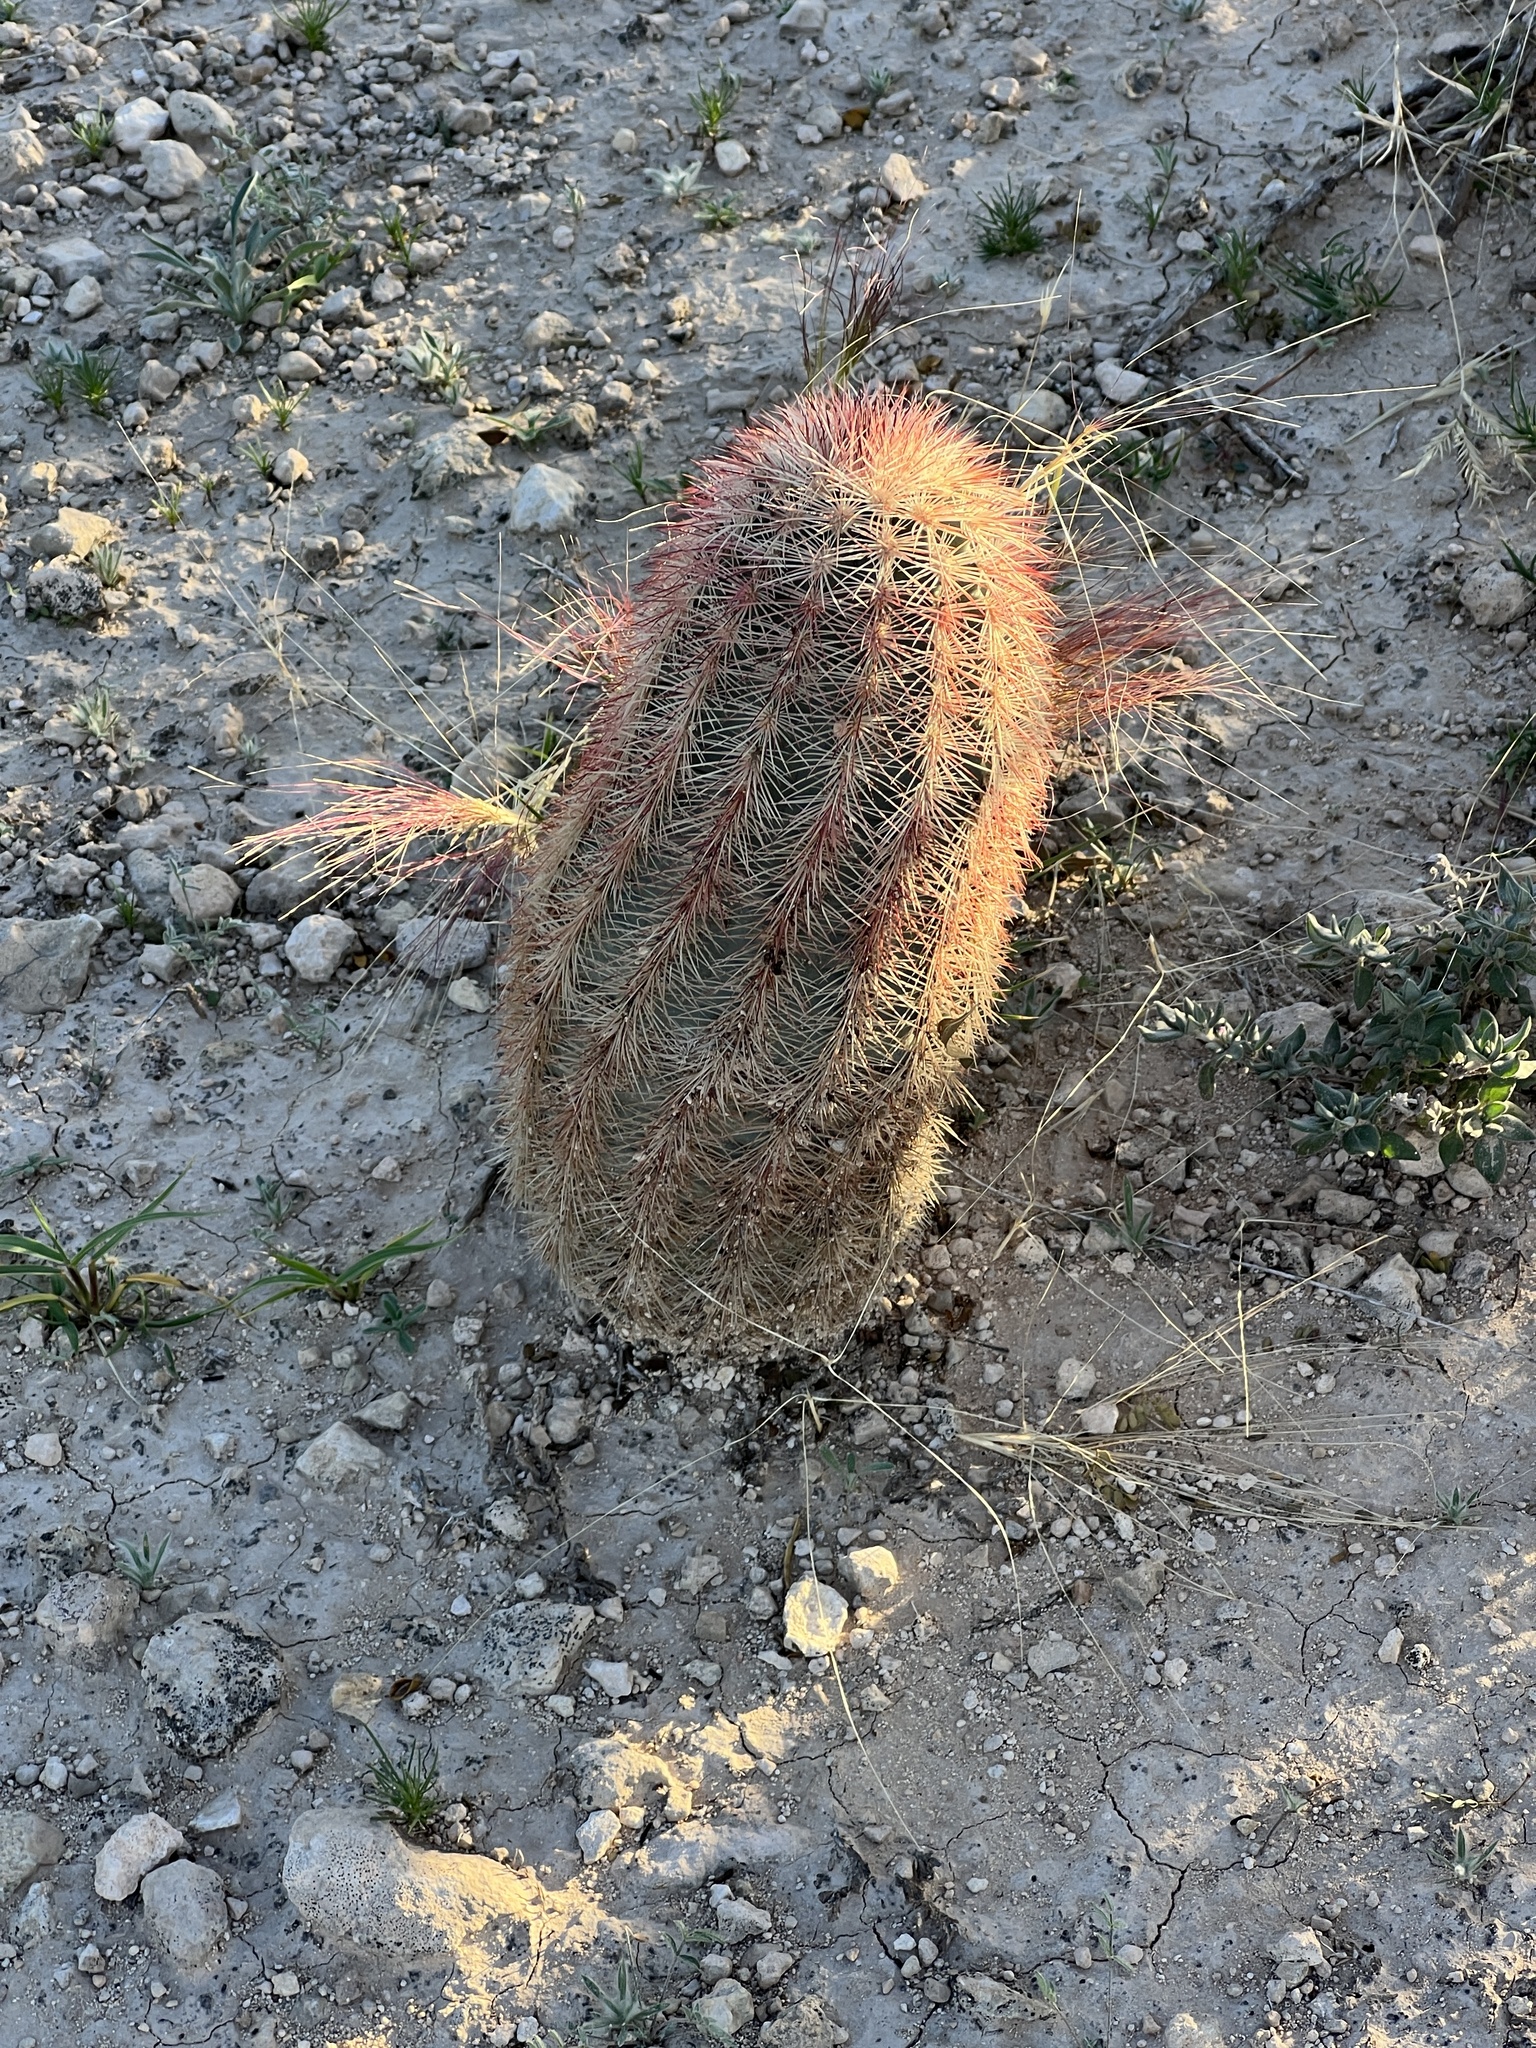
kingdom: Plantae
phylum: Tracheophyta
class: Magnoliopsida
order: Caryophyllales
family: Cactaceae
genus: Echinocereus
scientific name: Echinocereus dasyacanthus
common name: Spiny hedgehog cactus
